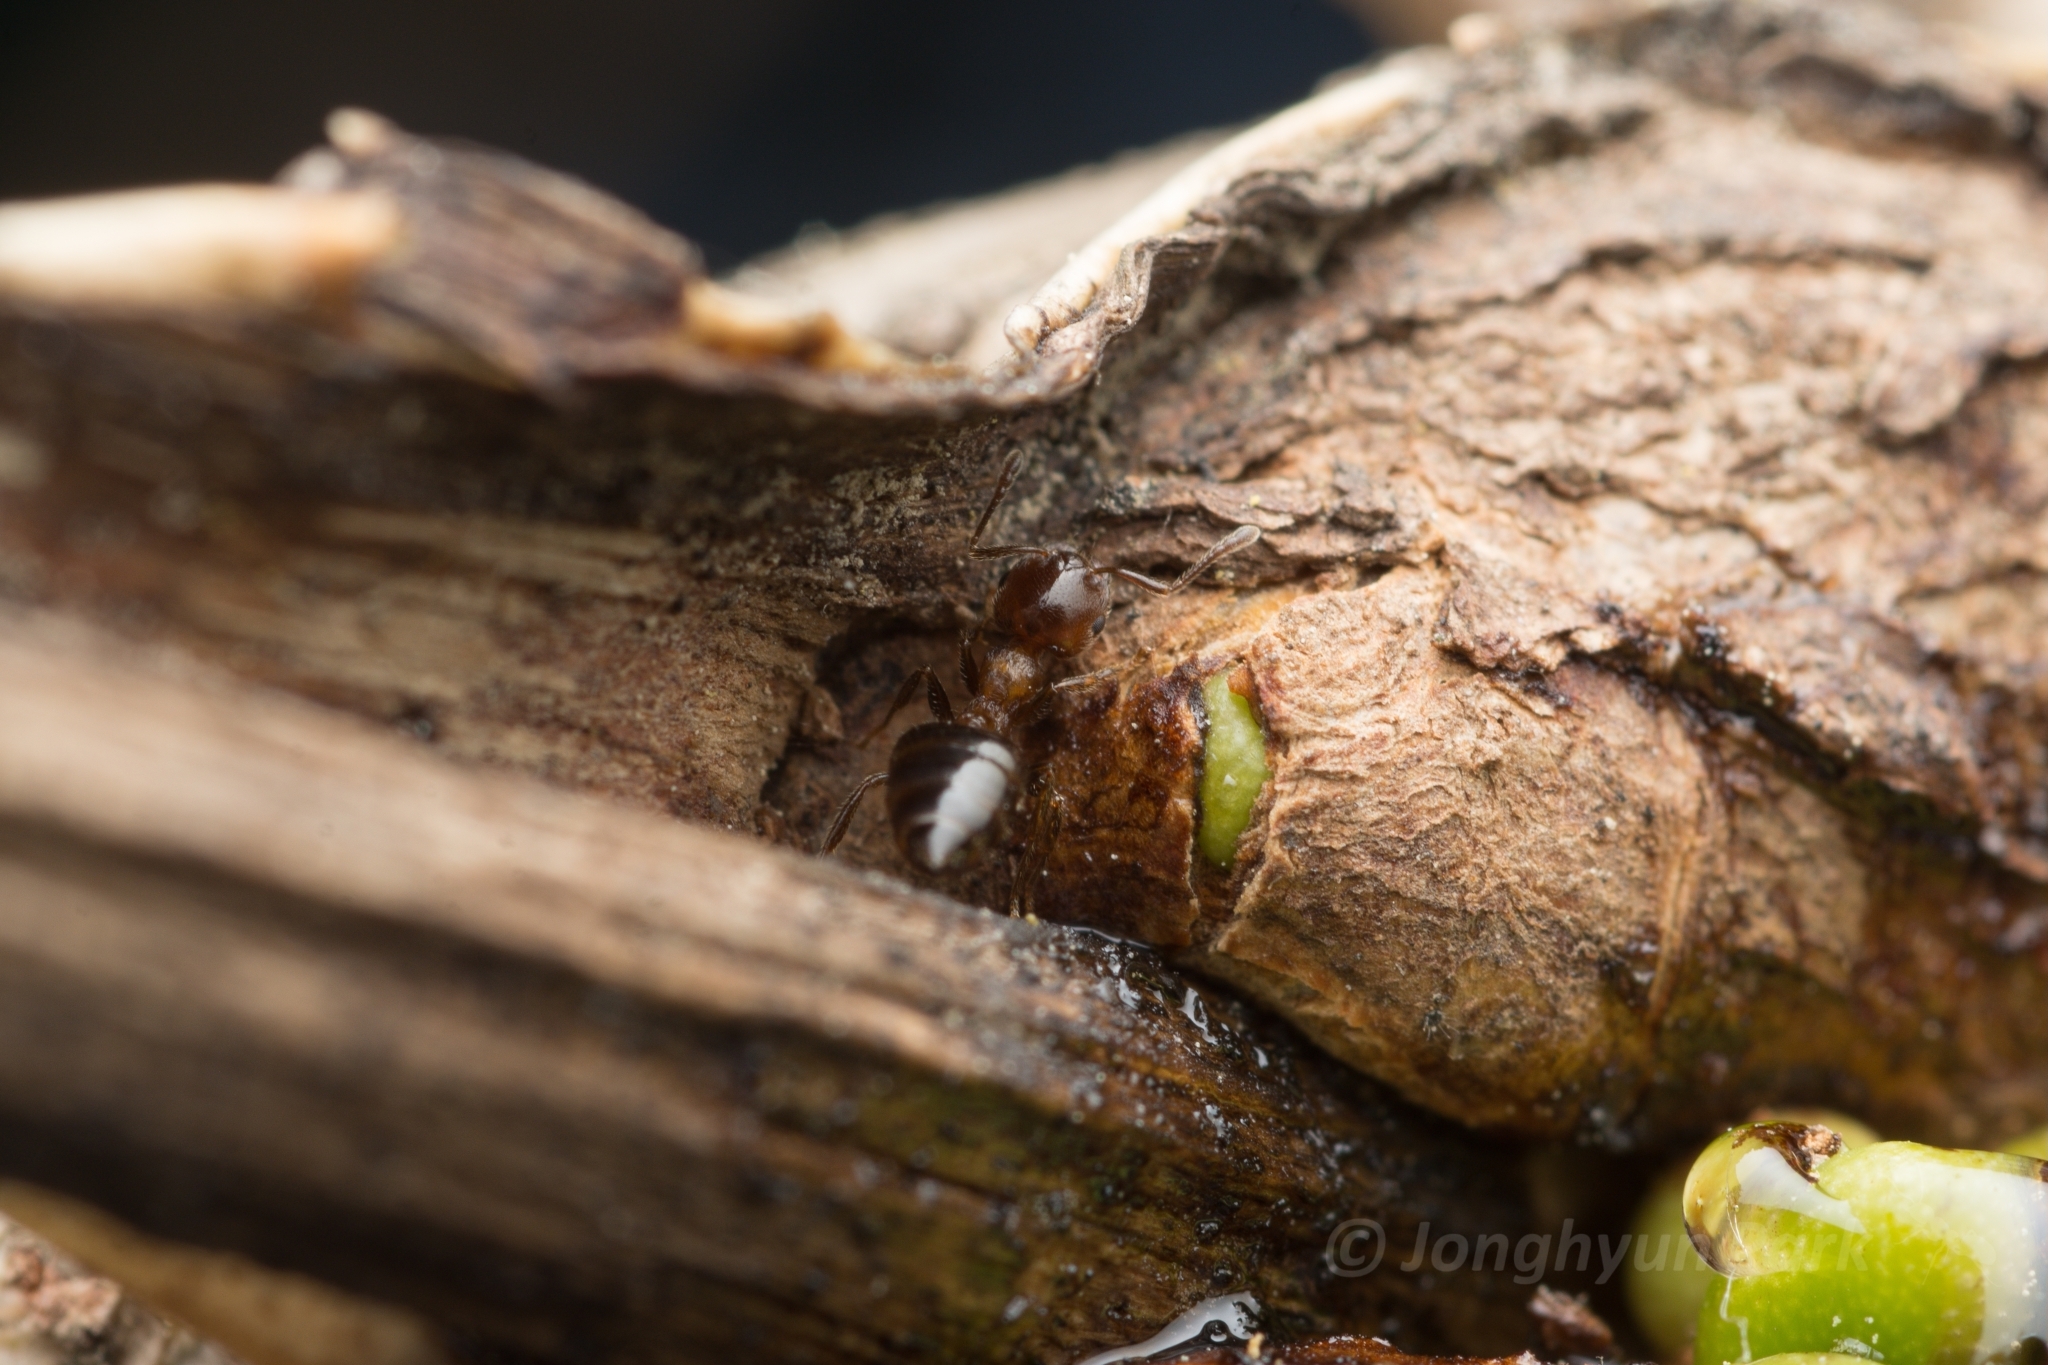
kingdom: Animalia
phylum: Arthropoda
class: Insecta
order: Hymenoptera
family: Formicidae
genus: Crematogaster
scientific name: Crematogaster matsumurai
